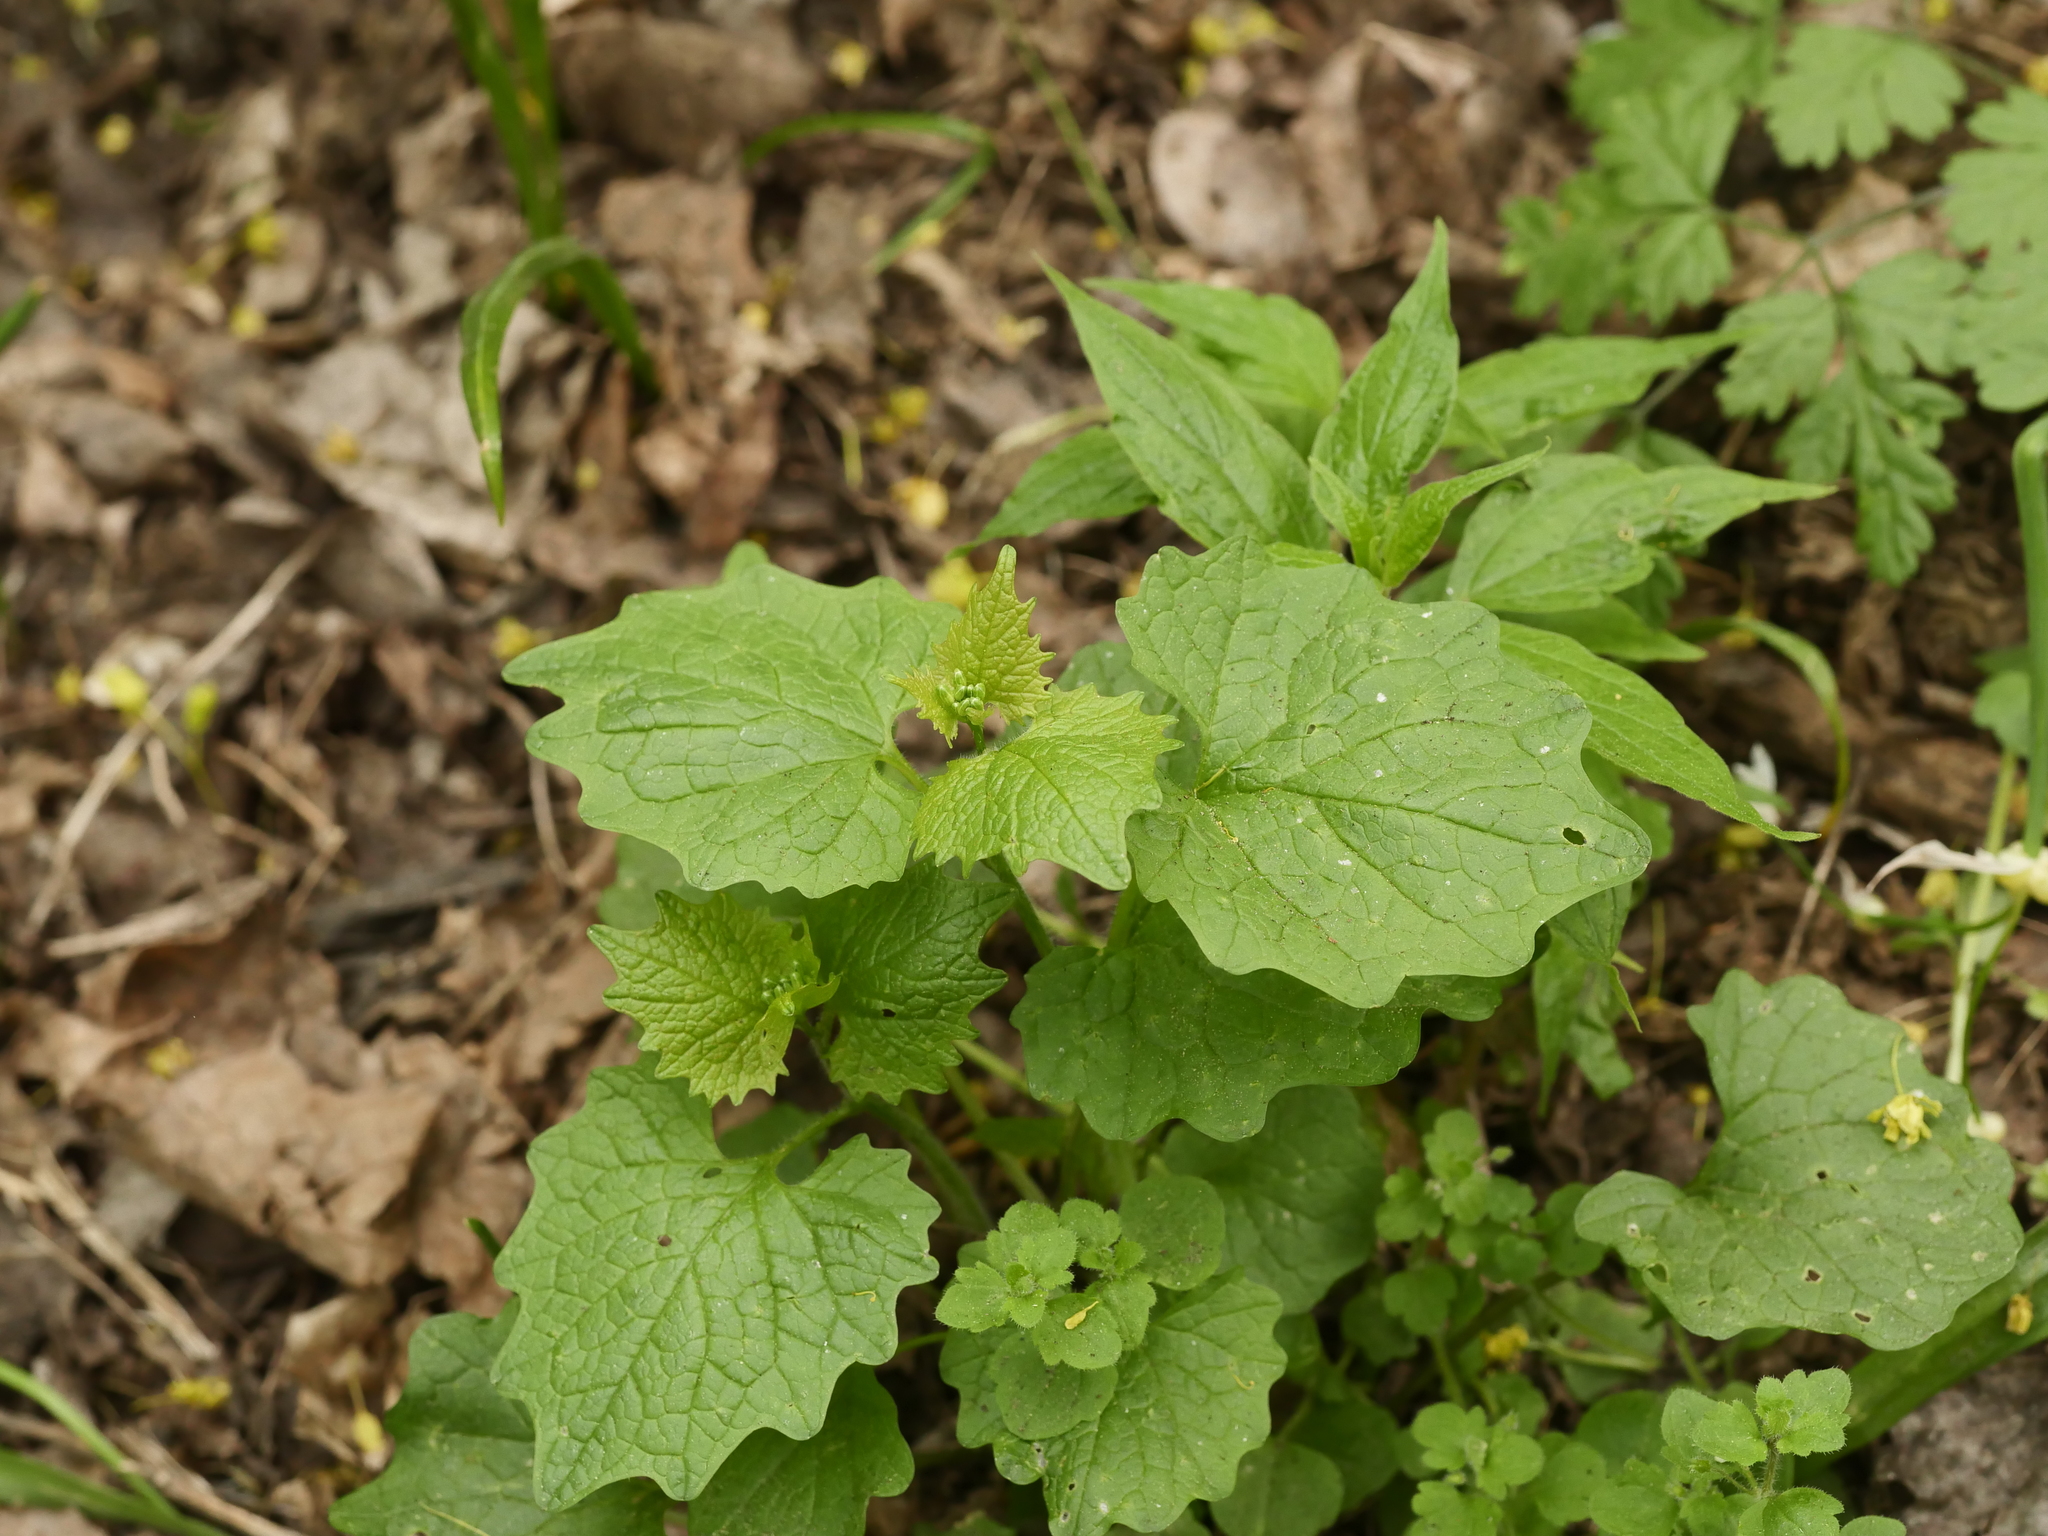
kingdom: Plantae
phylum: Tracheophyta
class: Magnoliopsida
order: Brassicales
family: Brassicaceae
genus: Alliaria
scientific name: Alliaria petiolata
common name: Garlic mustard
